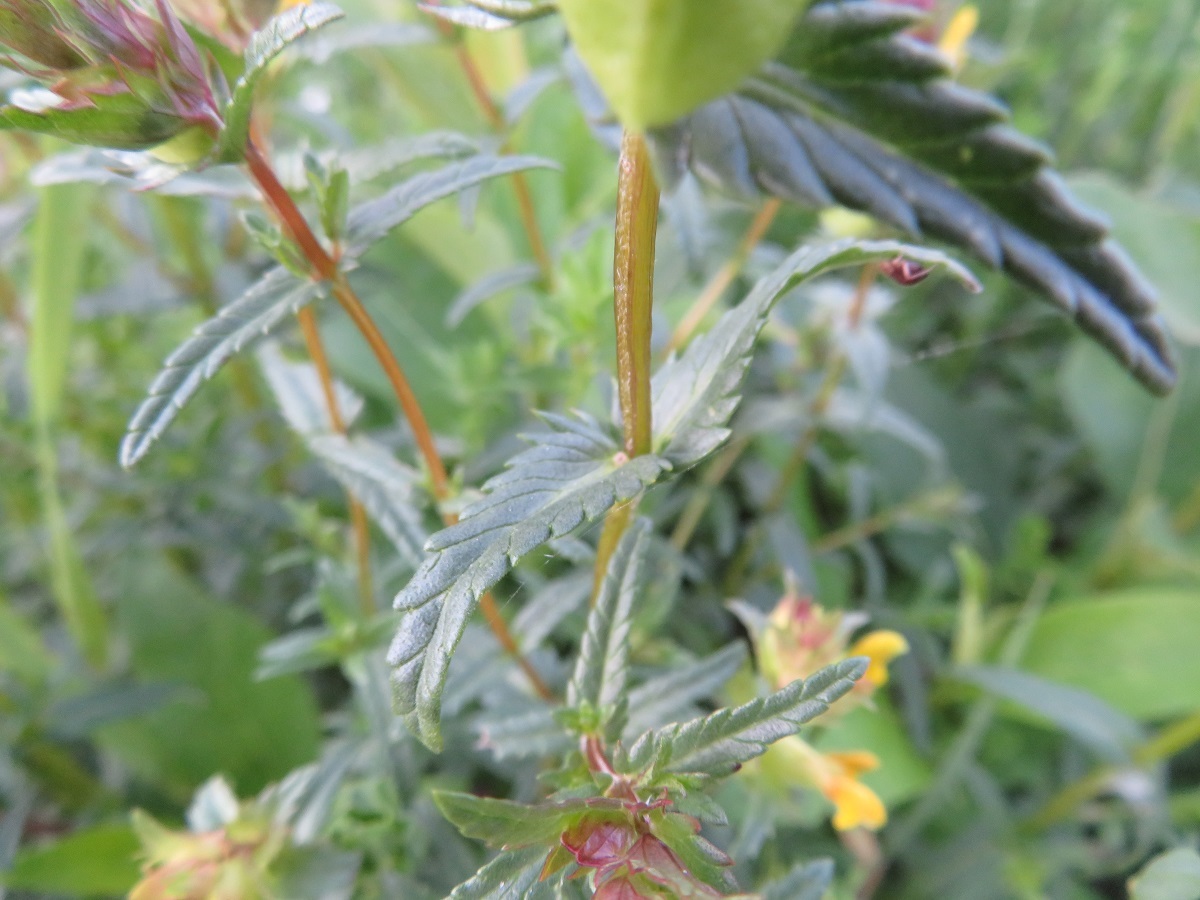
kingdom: Plantae
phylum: Tracheophyta
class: Magnoliopsida
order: Lamiales
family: Orobanchaceae
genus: Rhinanthus
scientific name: Rhinanthus minor
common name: Yellow-rattle
